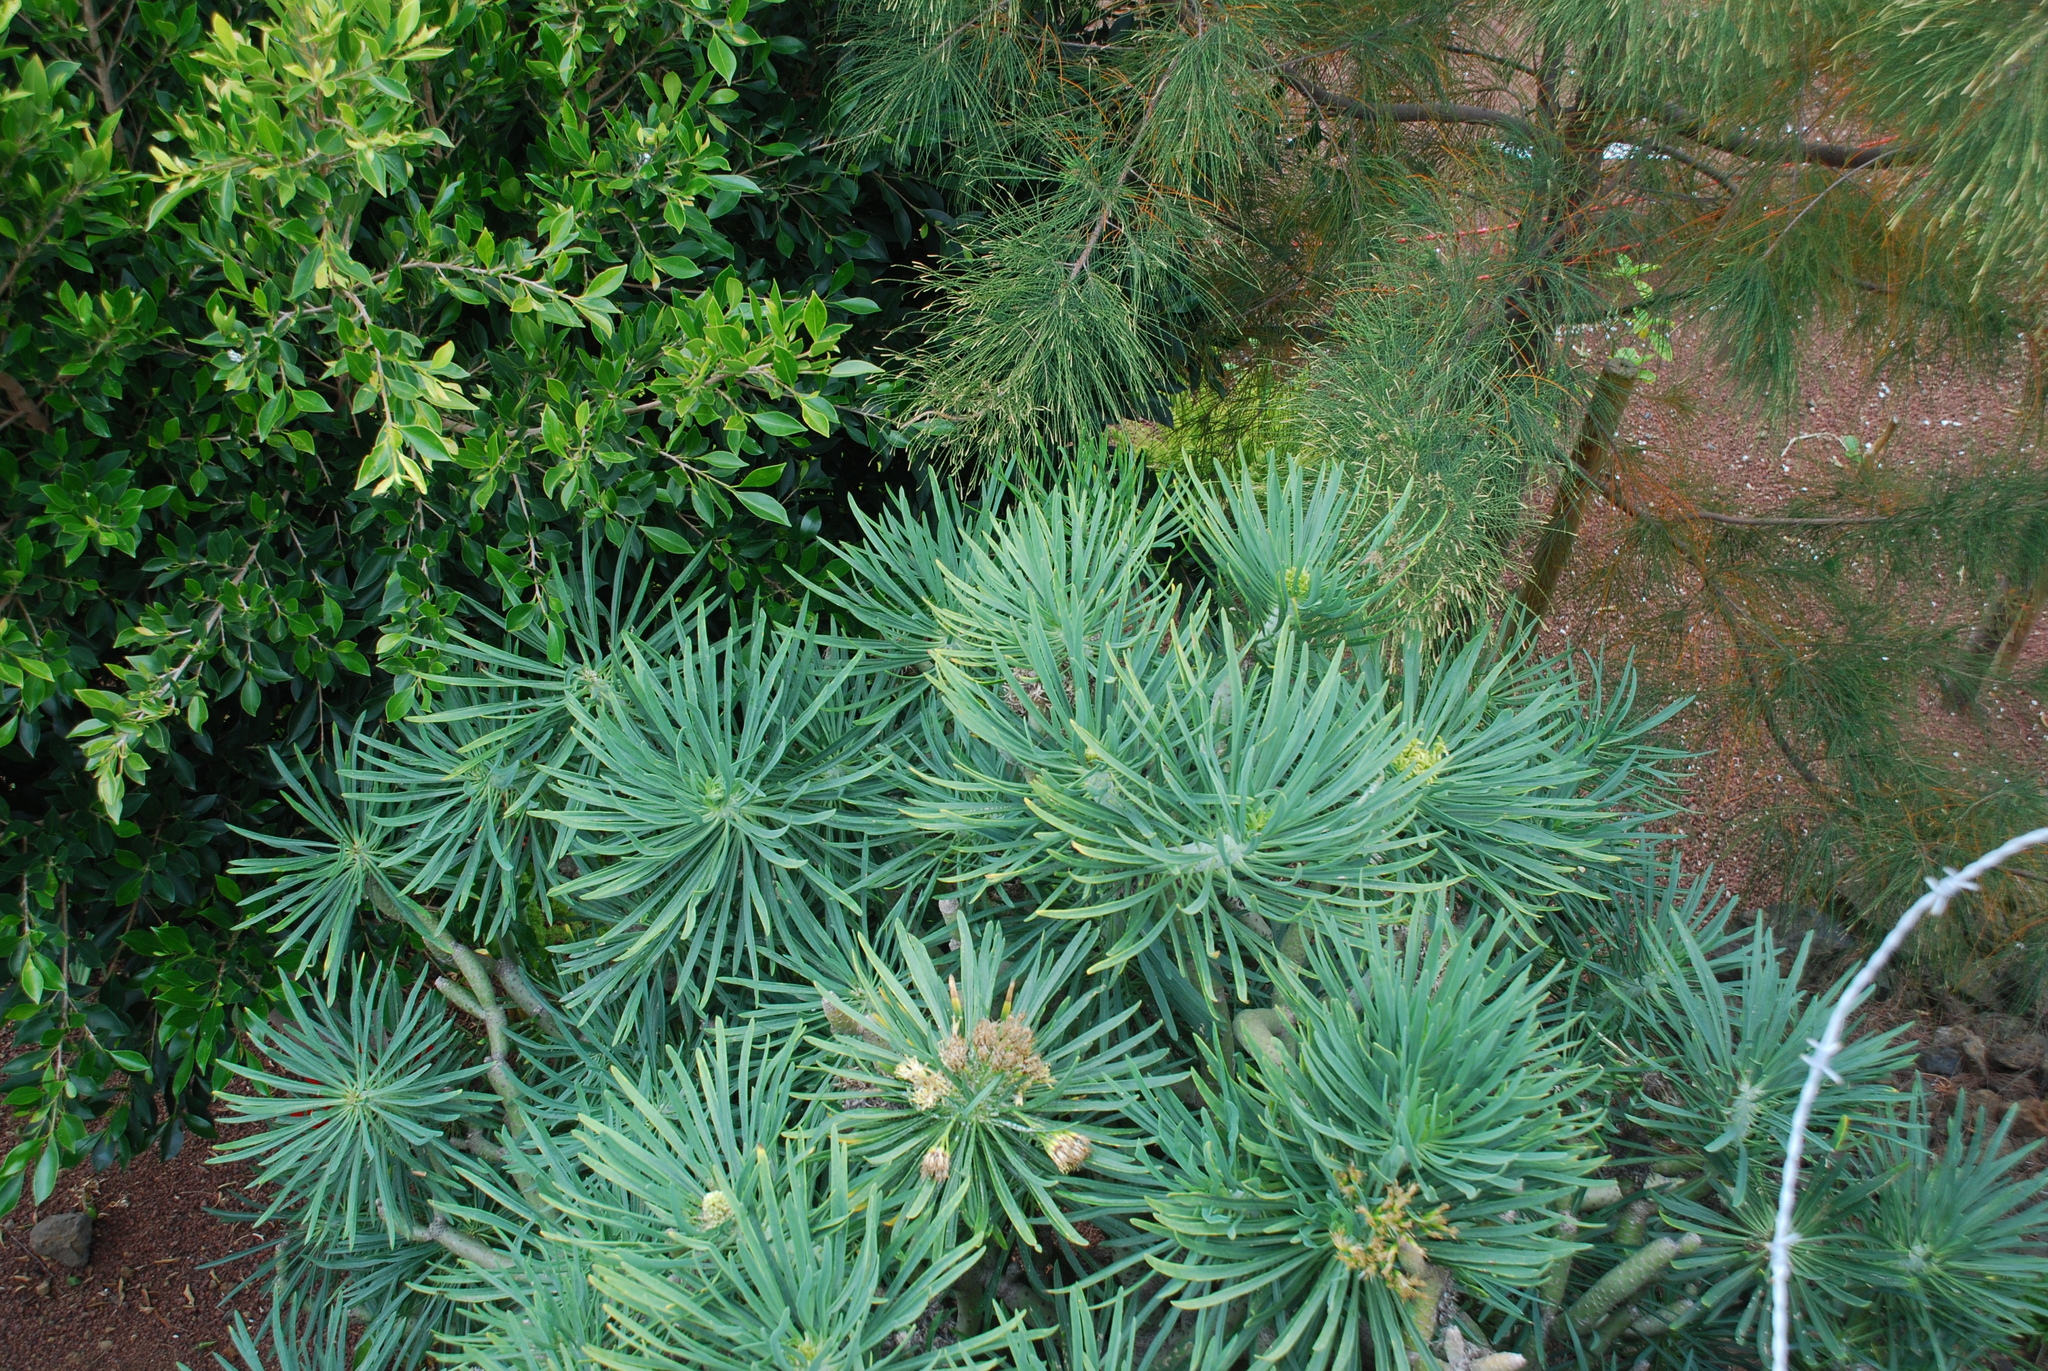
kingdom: Plantae
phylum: Tracheophyta
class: Magnoliopsida
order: Asterales
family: Asteraceae
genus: Kleinia
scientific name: Kleinia neriifolia
